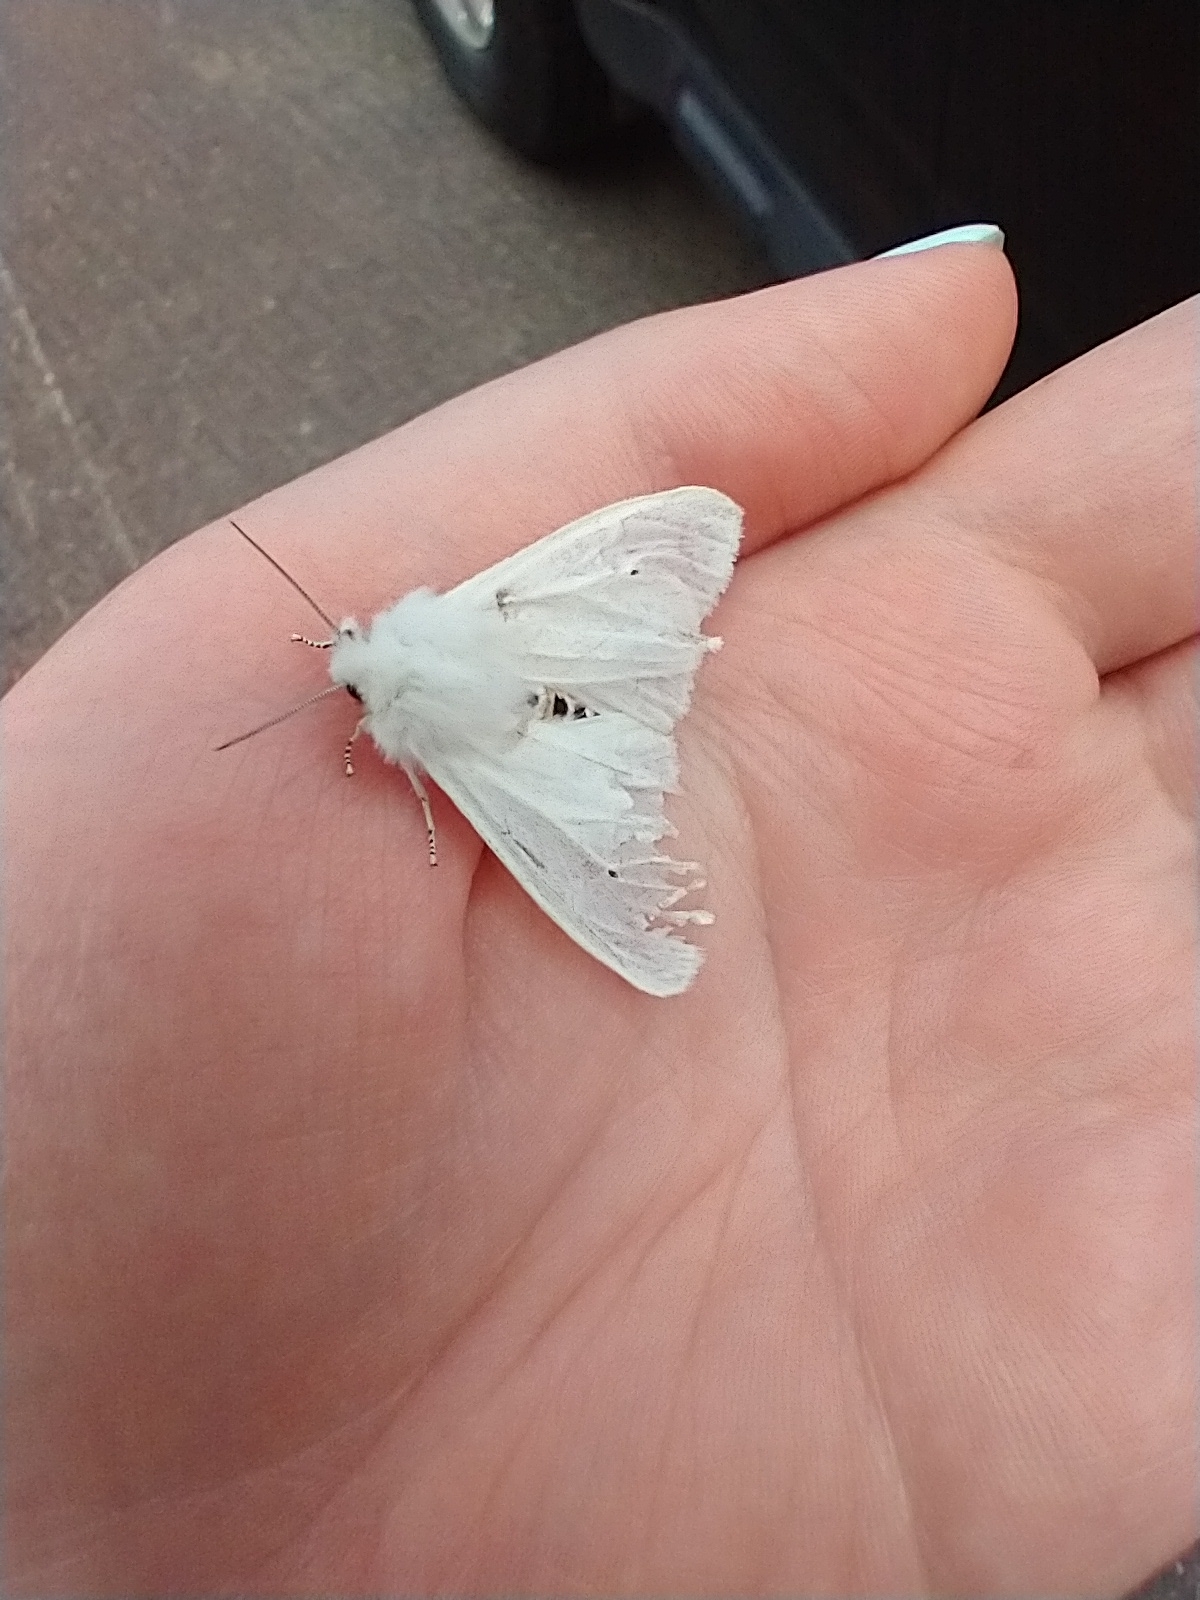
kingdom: Animalia
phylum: Arthropoda
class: Insecta
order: Lepidoptera
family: Erebidae
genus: Spilosoma
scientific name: Spilosoma virginica
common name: Virginia tiger moth
